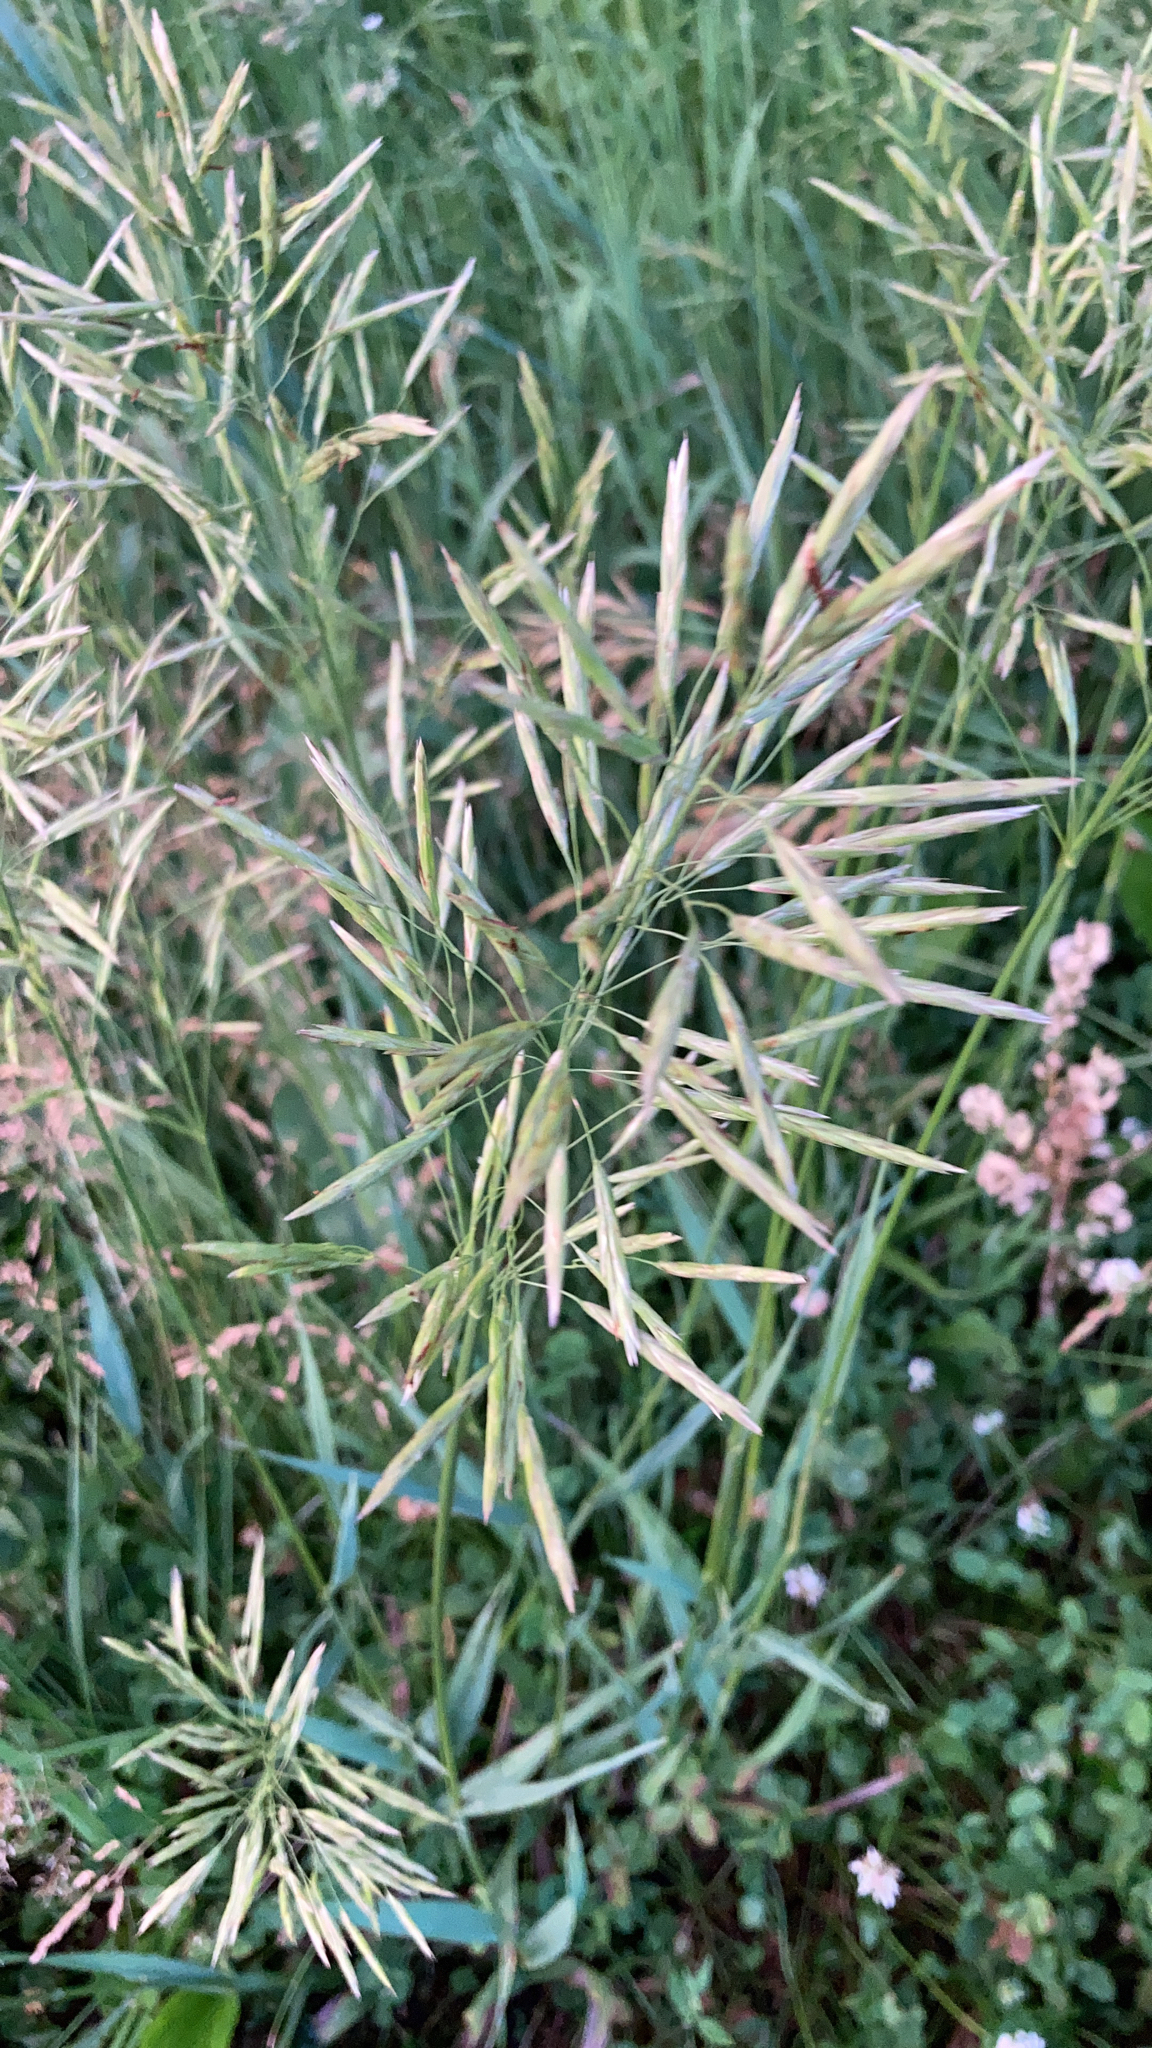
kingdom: Plantae
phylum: Tracheophyta
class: Liliopsida
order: Poales
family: Poaceae
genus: Bromus
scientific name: Bromus inermis
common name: Smooth brome
